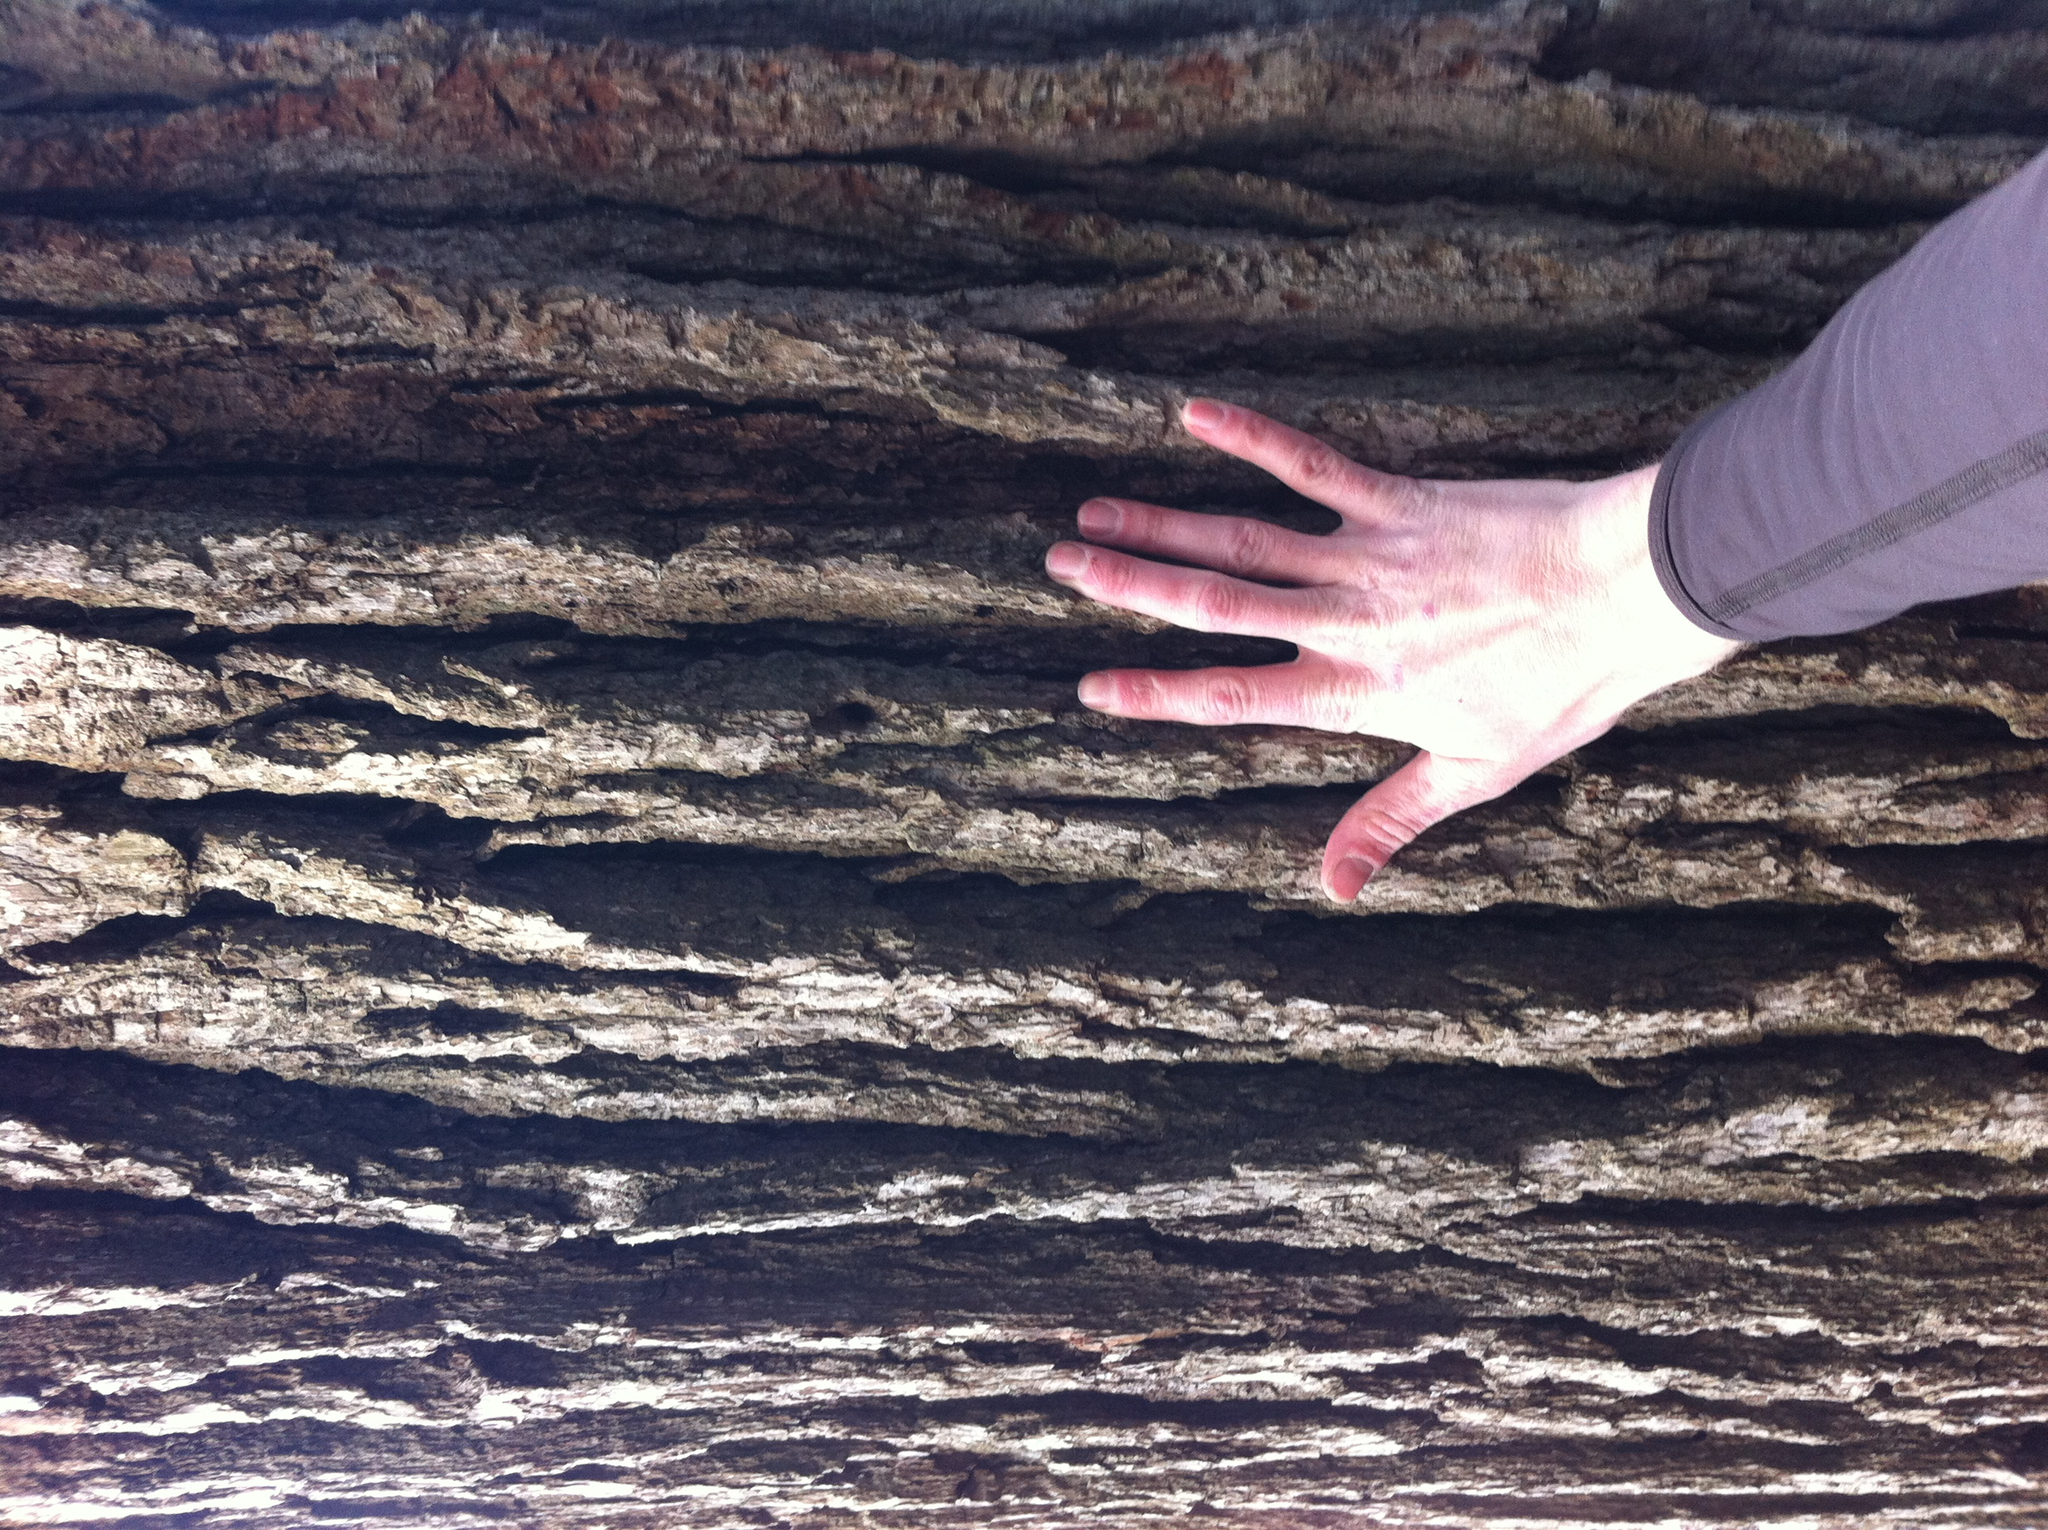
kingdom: Plantae
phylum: Tracheophyta
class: Magnoliopsida
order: Fagales
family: Fagaceae
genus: Quercus
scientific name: Quercus macrocarpa
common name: Bur oak
